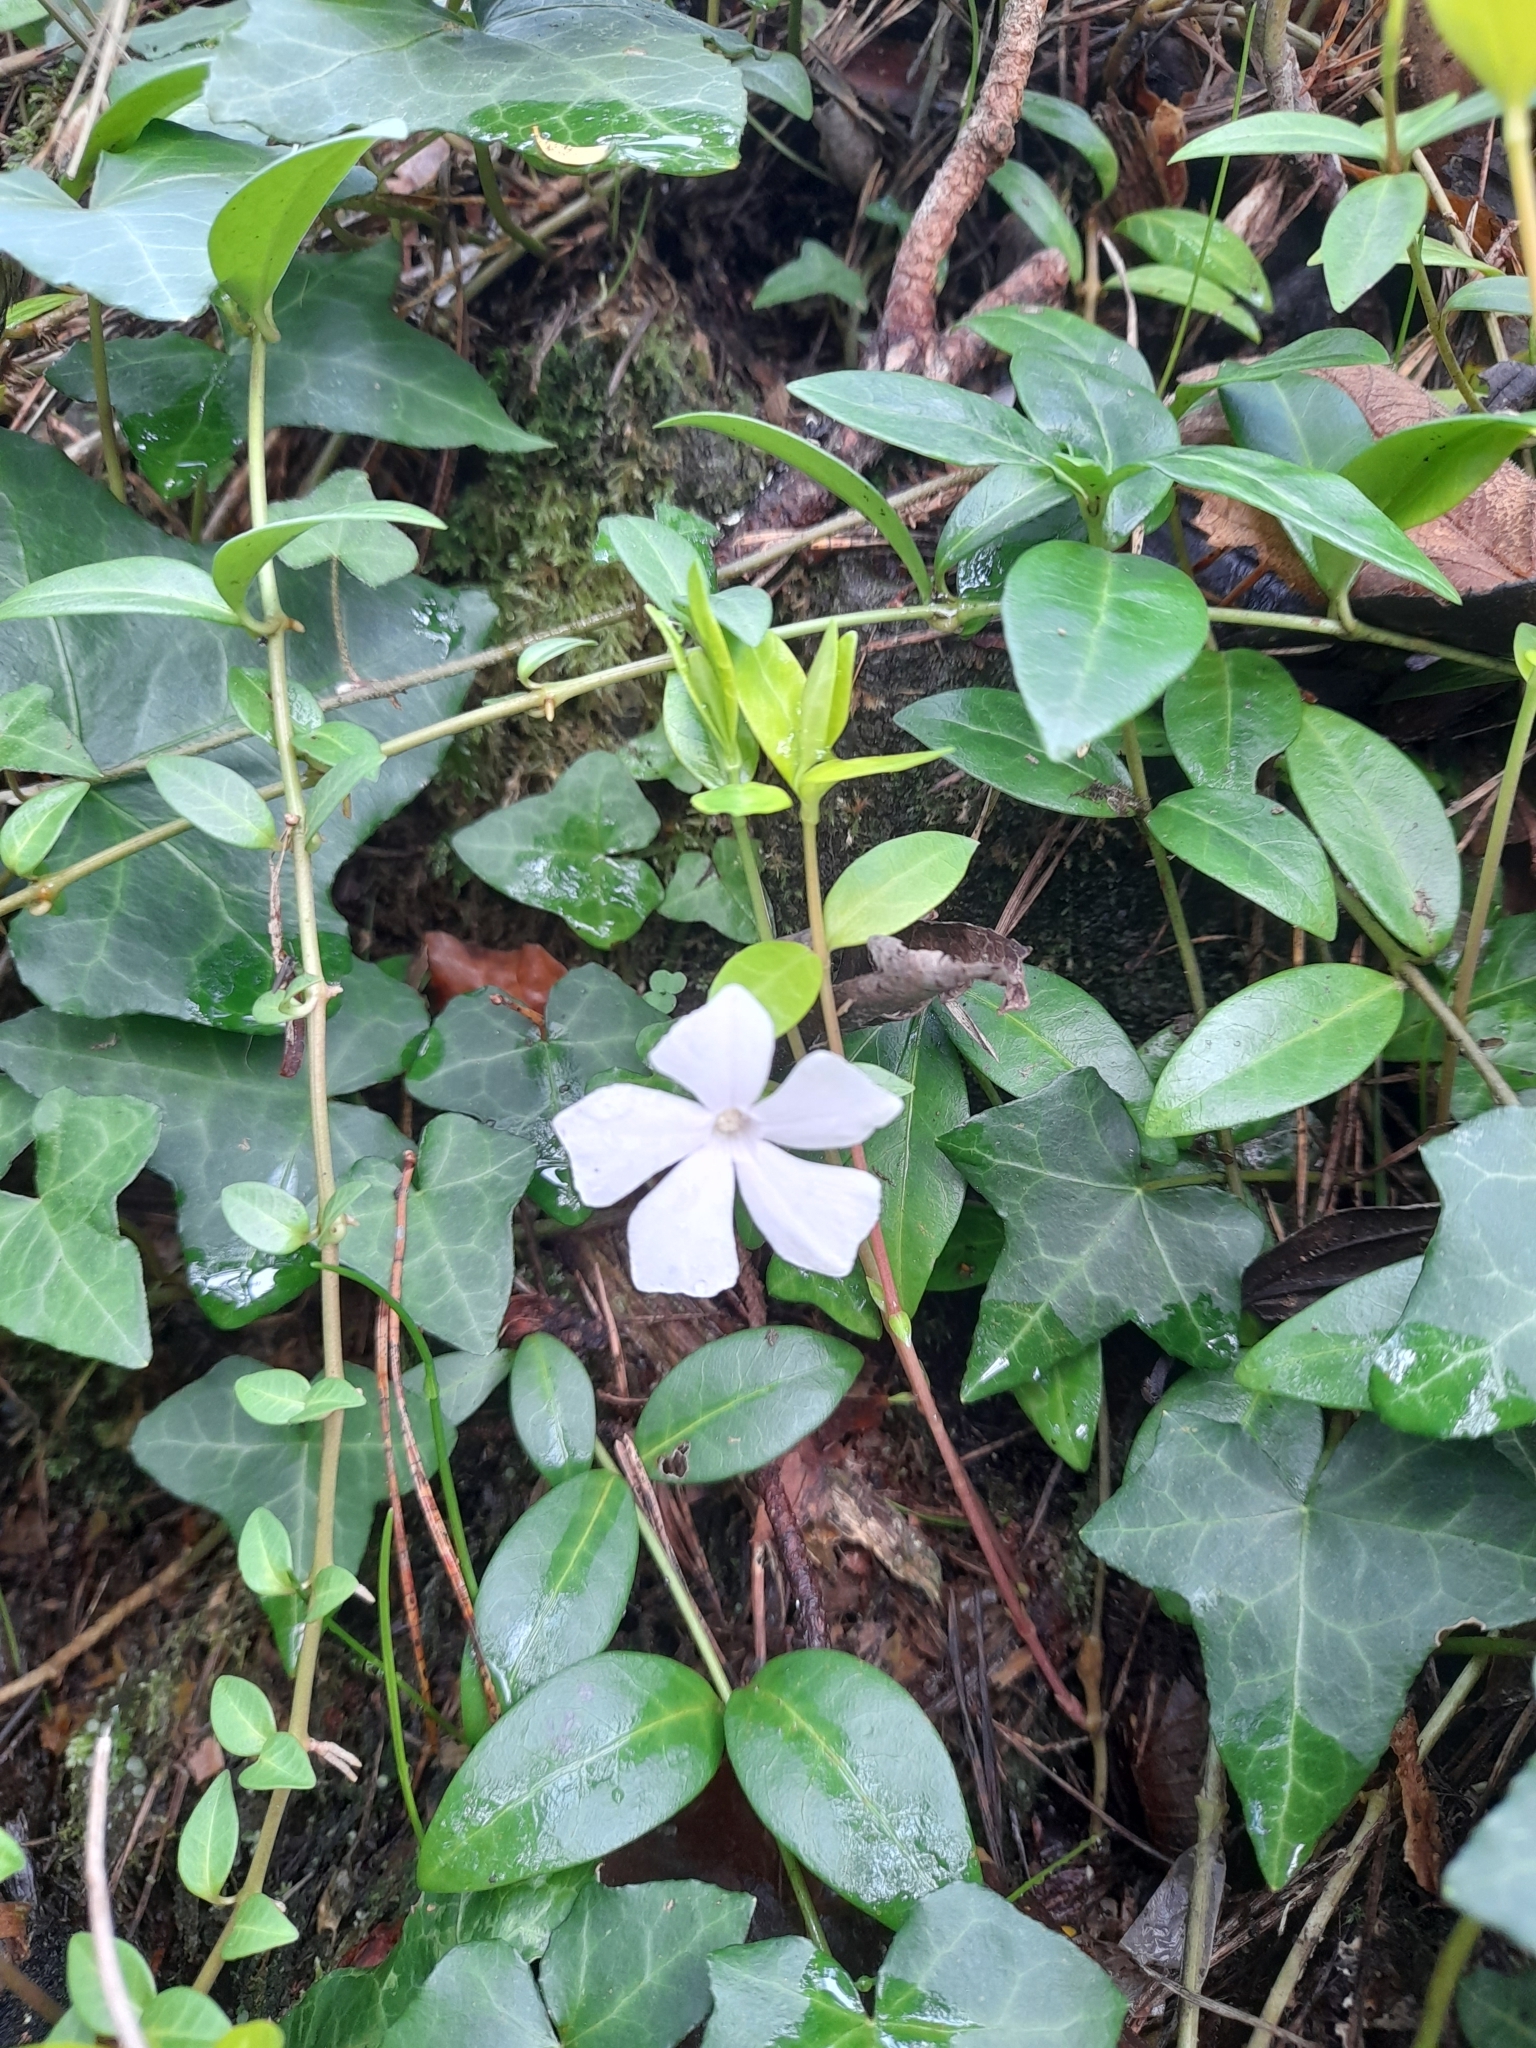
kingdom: Plantae
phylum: Tracheophyta
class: Magnoliopsida
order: Gentianales
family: Apocynaceae
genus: Vinca
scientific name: Vinca minor
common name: Lesser periwinkle
